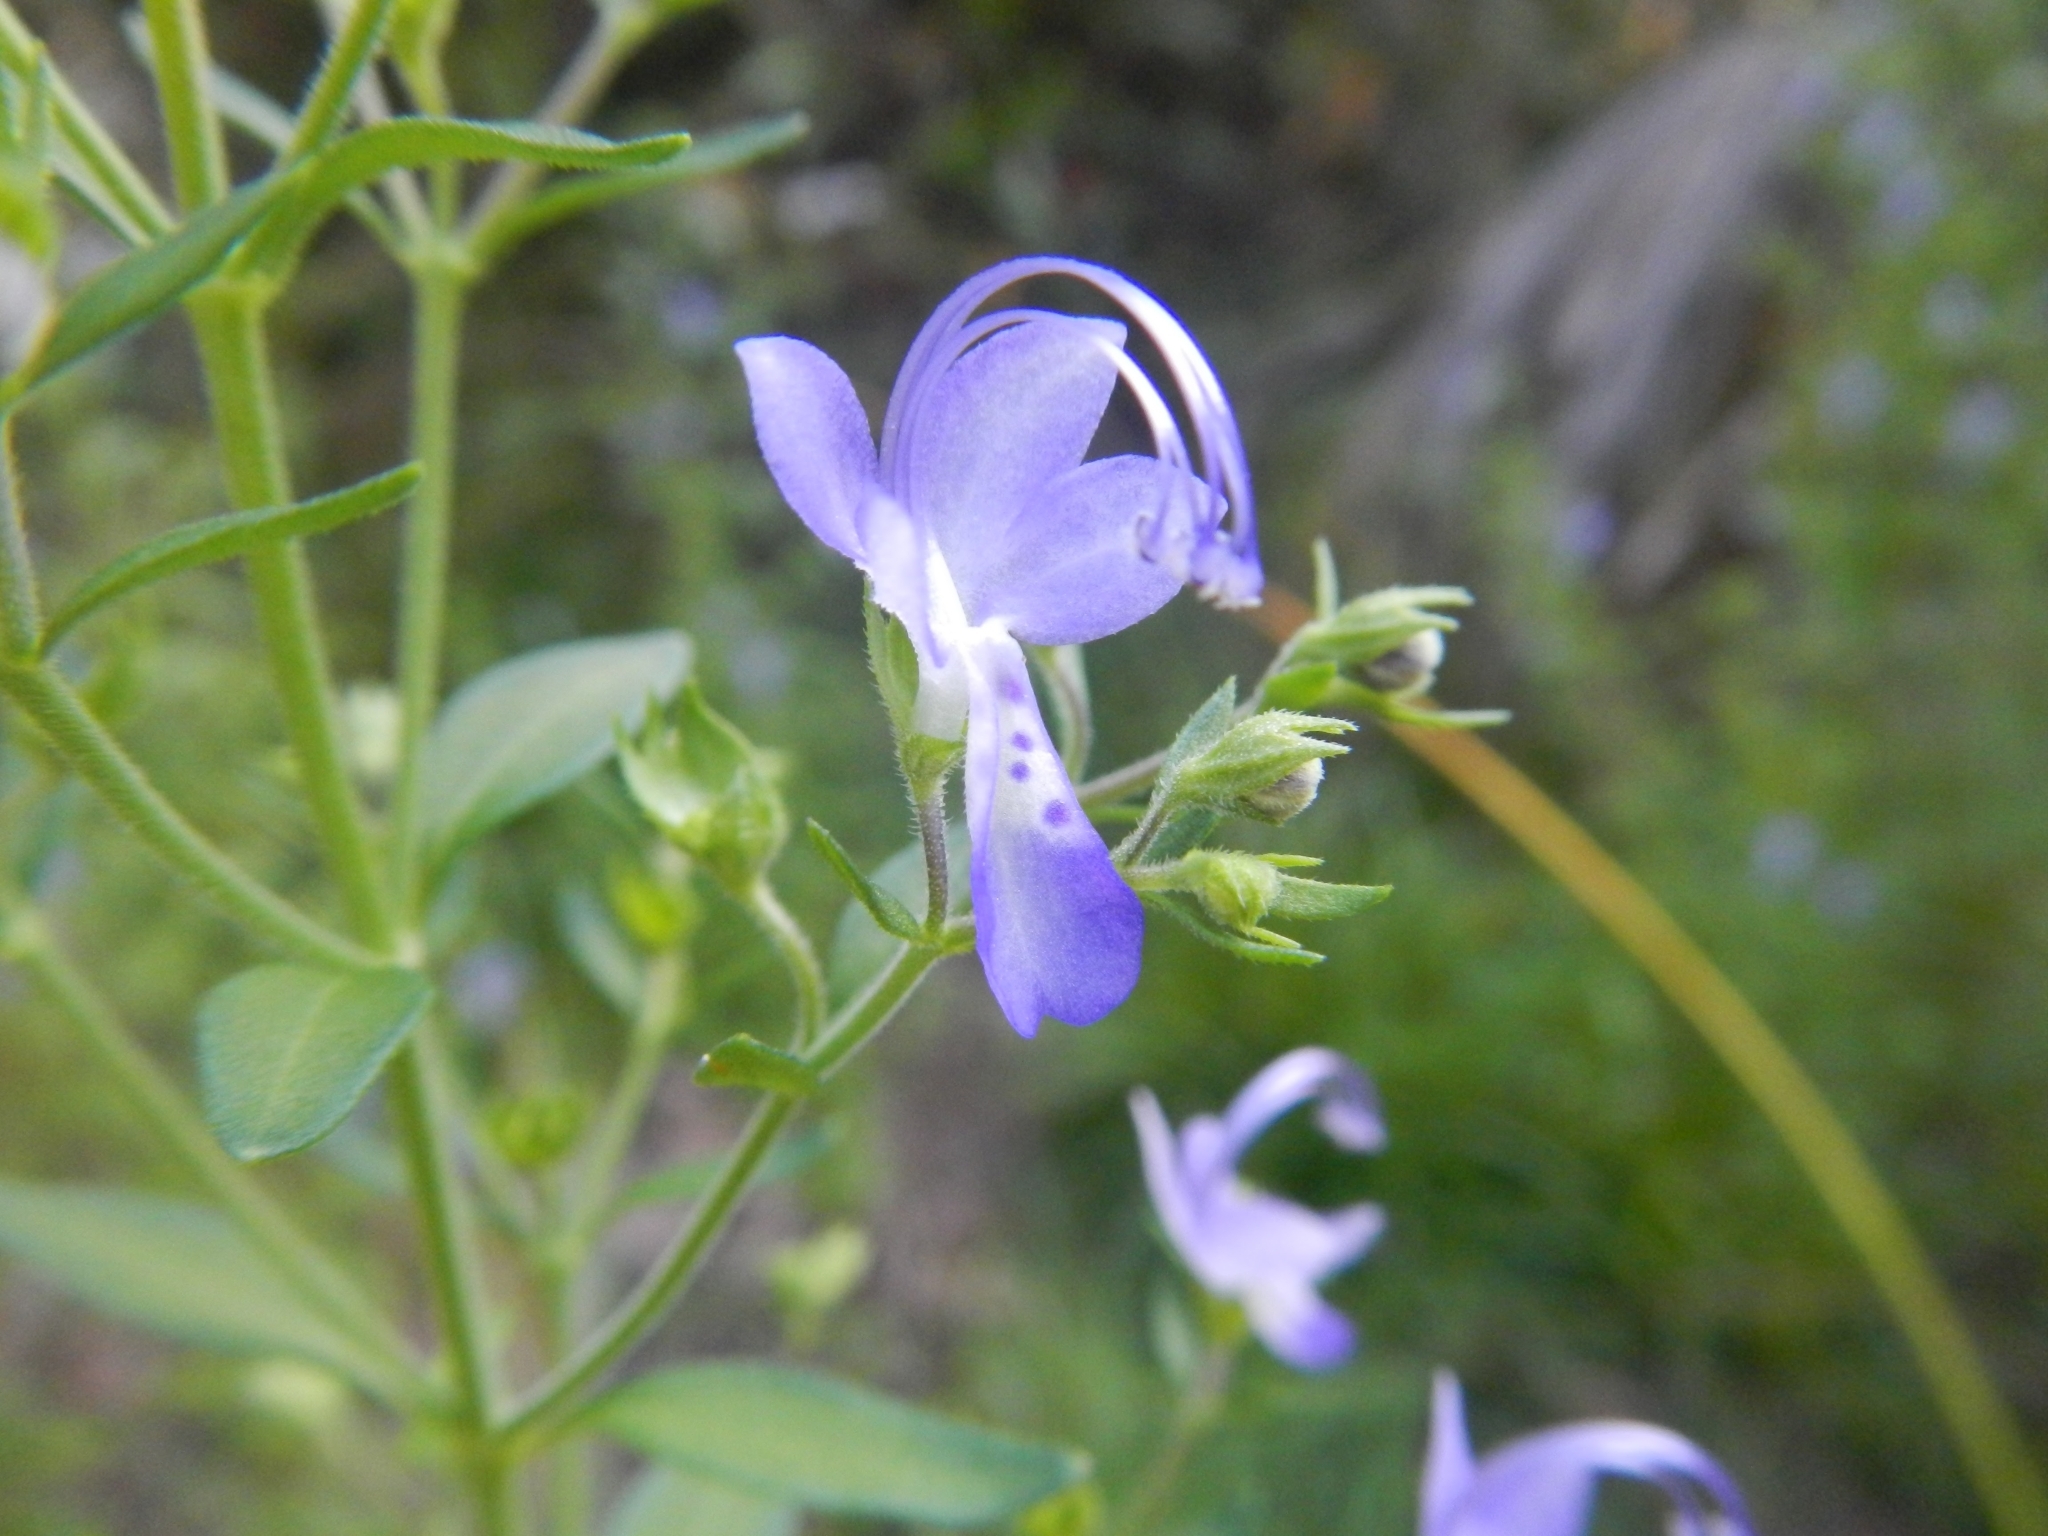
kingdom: Plantae
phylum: Tracheophyta
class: Magnoliopsida
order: Lamiales
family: Lamiaceae
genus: Trichostema
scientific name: Trichostema dichotomum
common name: Bastard pennyroyal
